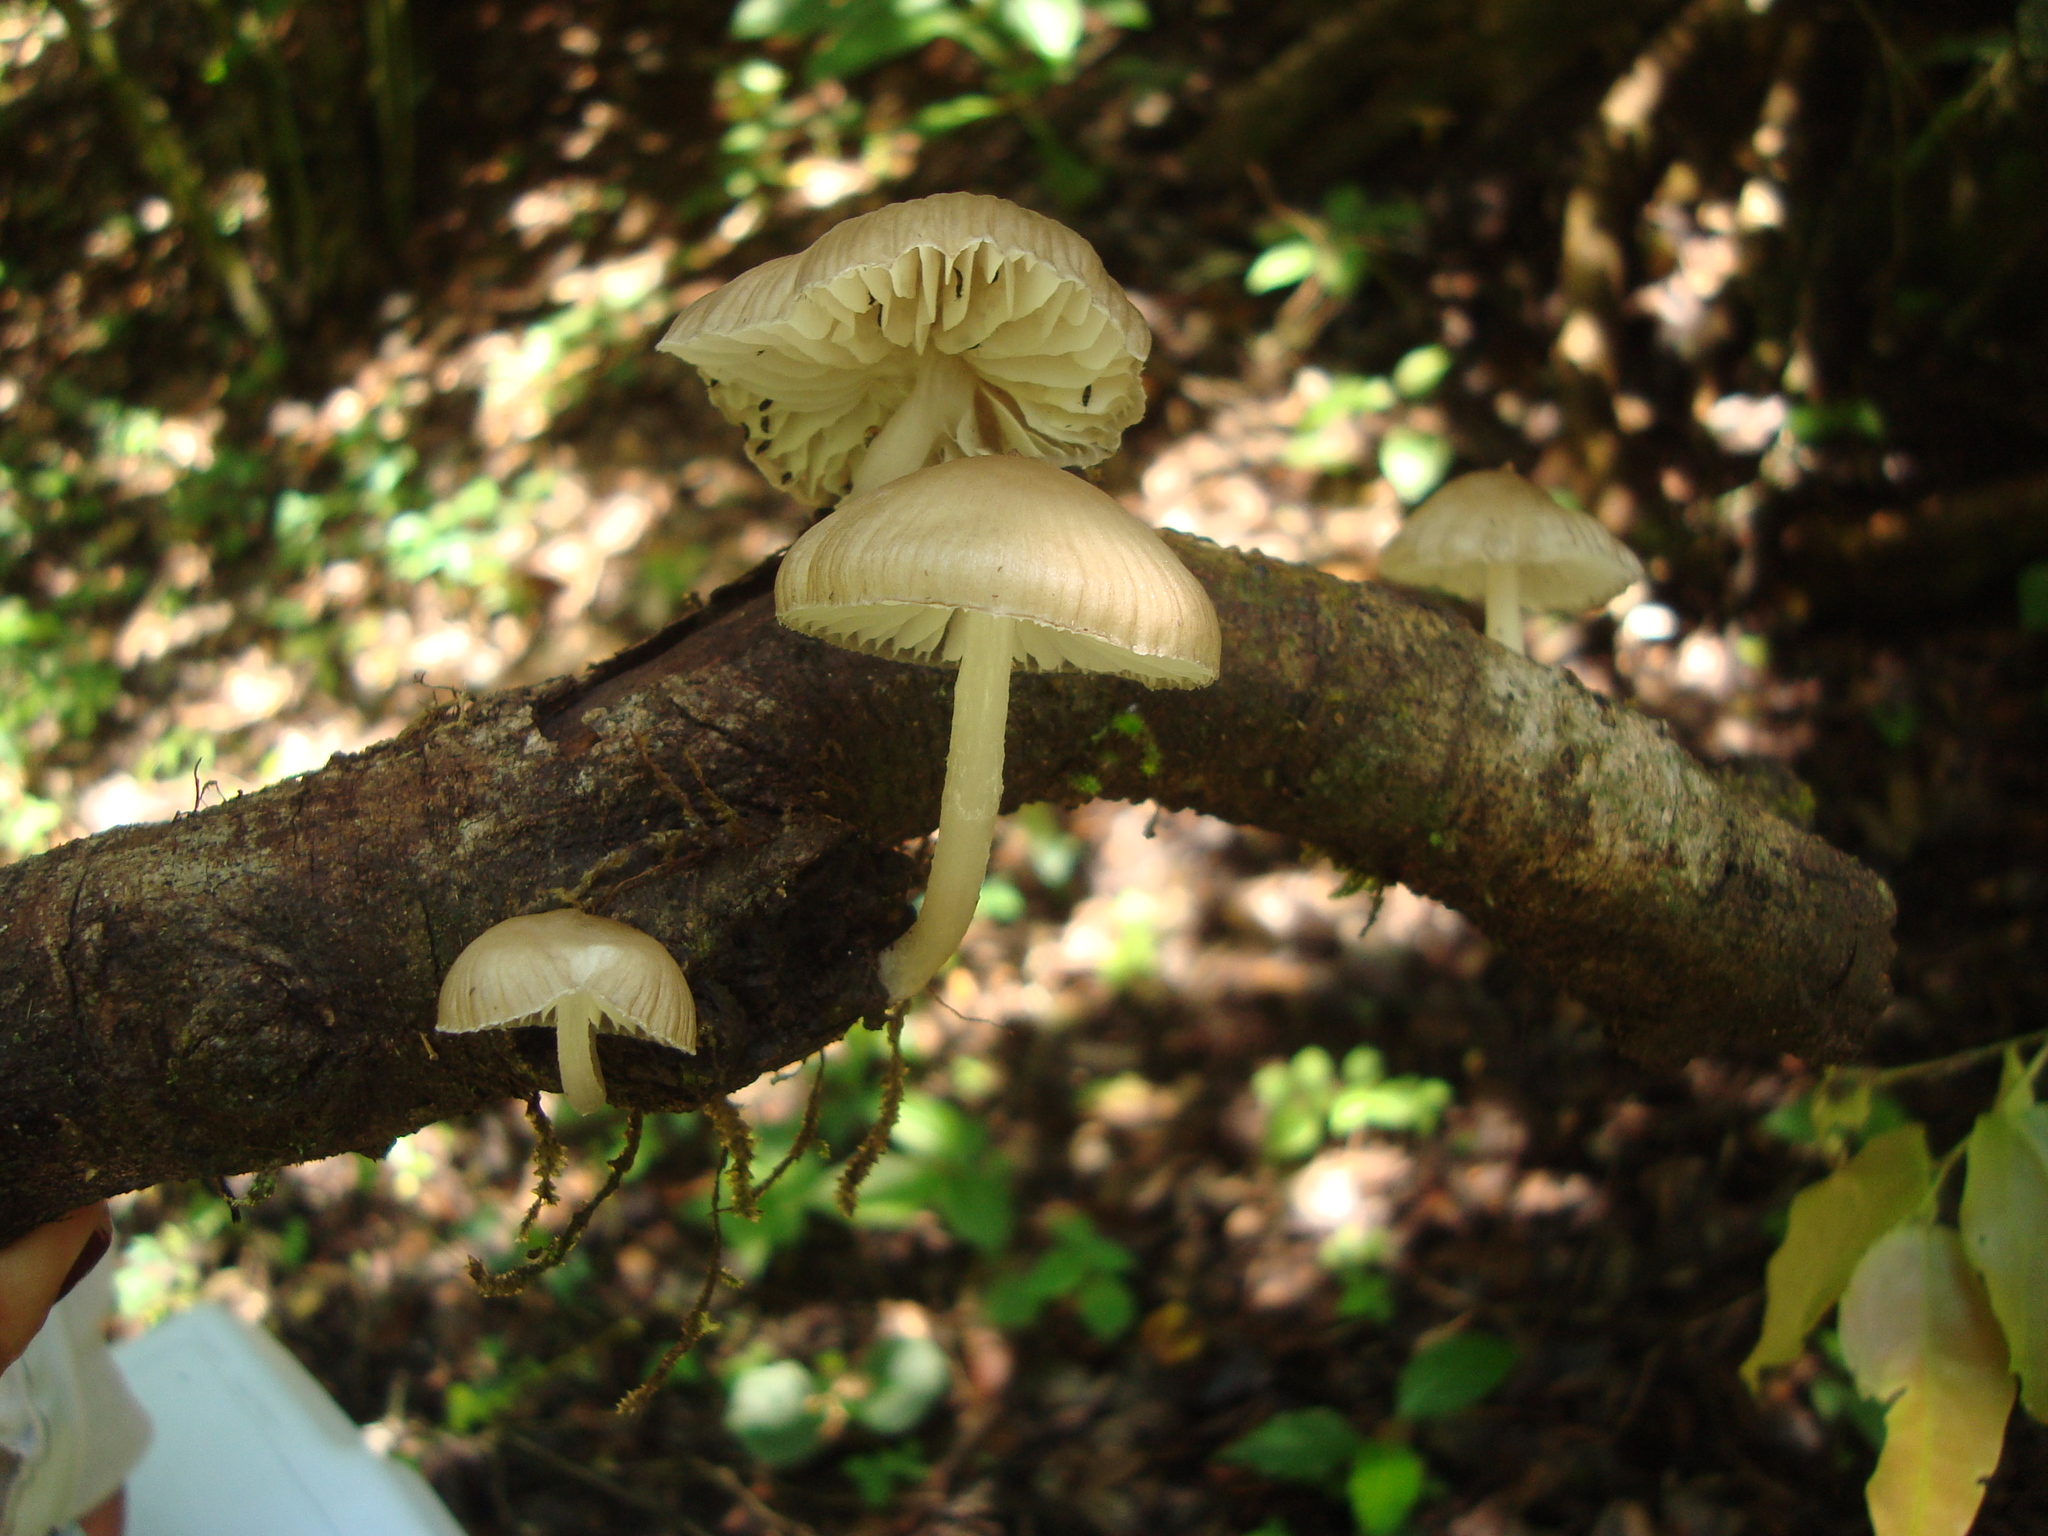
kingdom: Fungi
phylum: Basidiomycota
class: Agaricomycetes
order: Agaricales
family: Mycenaceae
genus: Mycena
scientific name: Mycena galericulata
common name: Bonnet mycena
